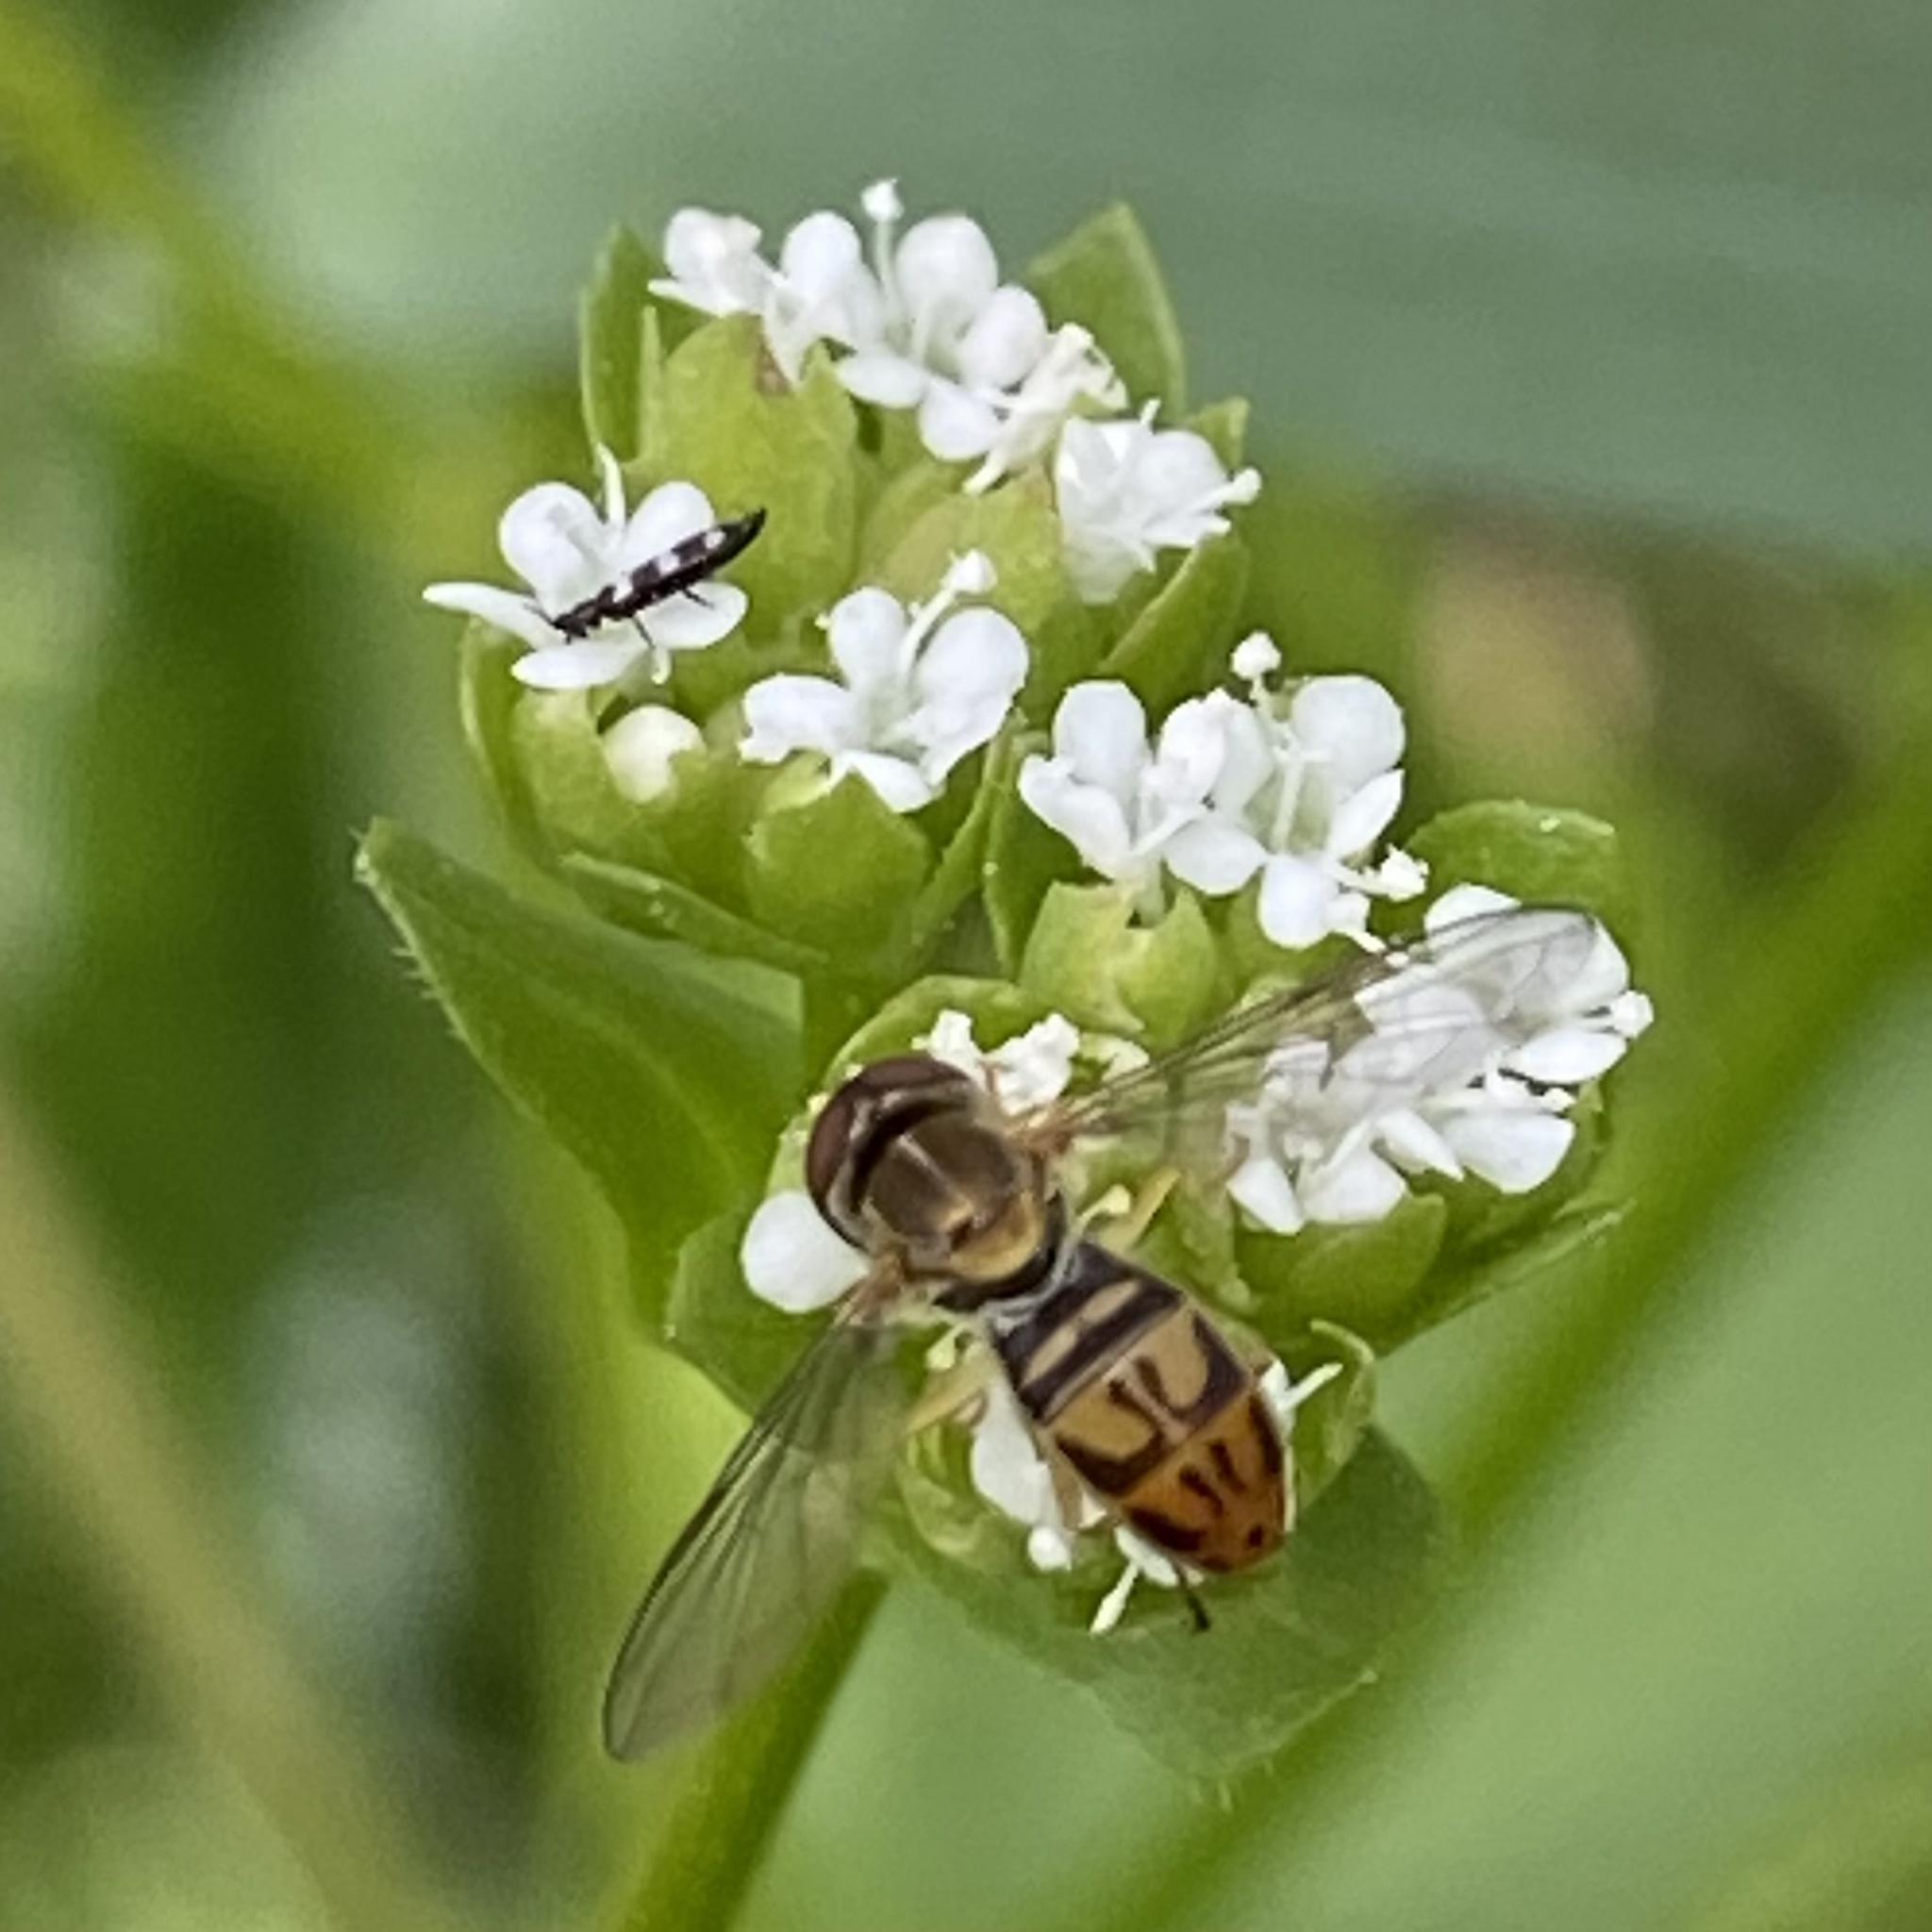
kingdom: Animalia
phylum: Arthropoda
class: Insecta
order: Diptera
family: Syrphidae
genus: Toxomerus
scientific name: Toxomerus marginatus
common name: Syrphid fly
